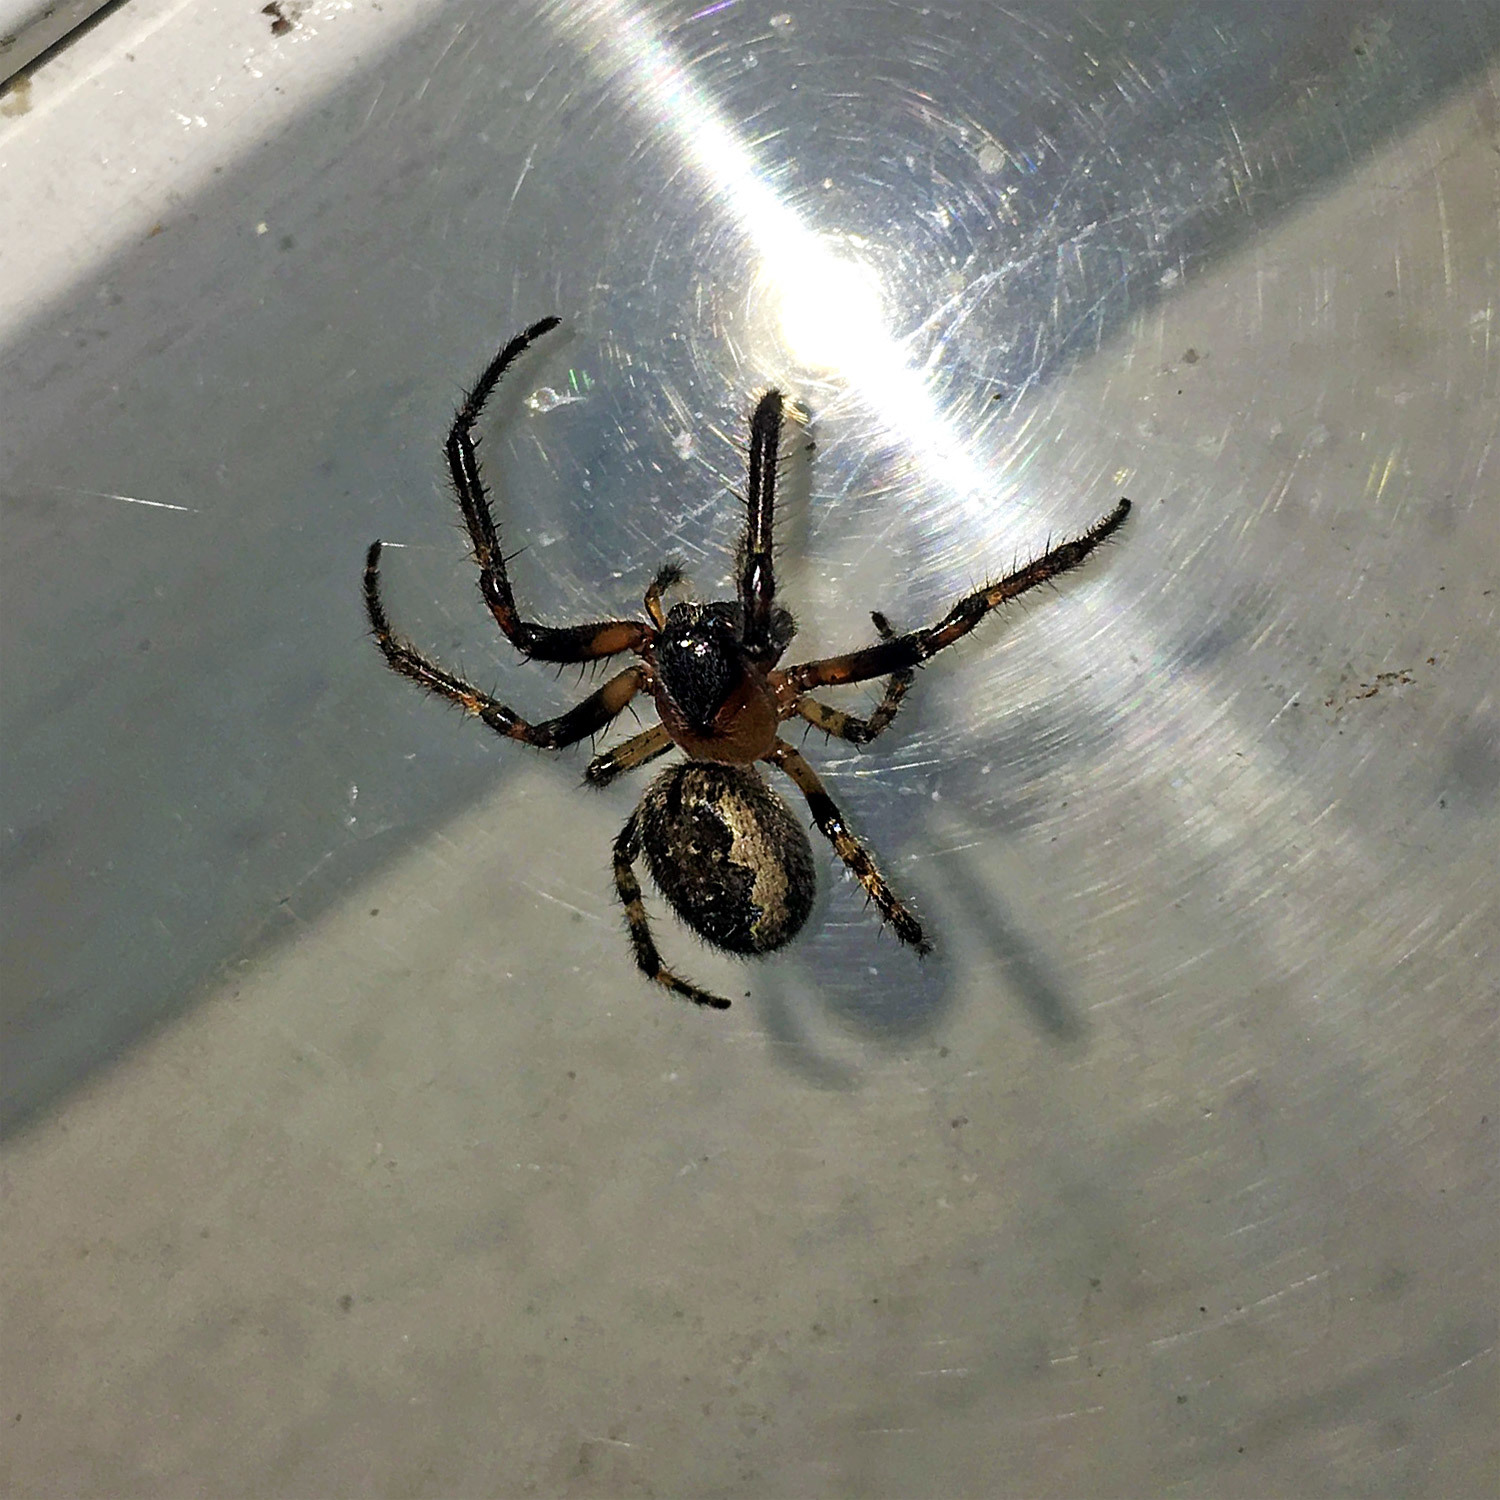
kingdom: Animalia
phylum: Arthropoda
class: Arachnida
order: Araneae
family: Araneidae
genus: Yaginumia
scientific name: Yaginumia sia
